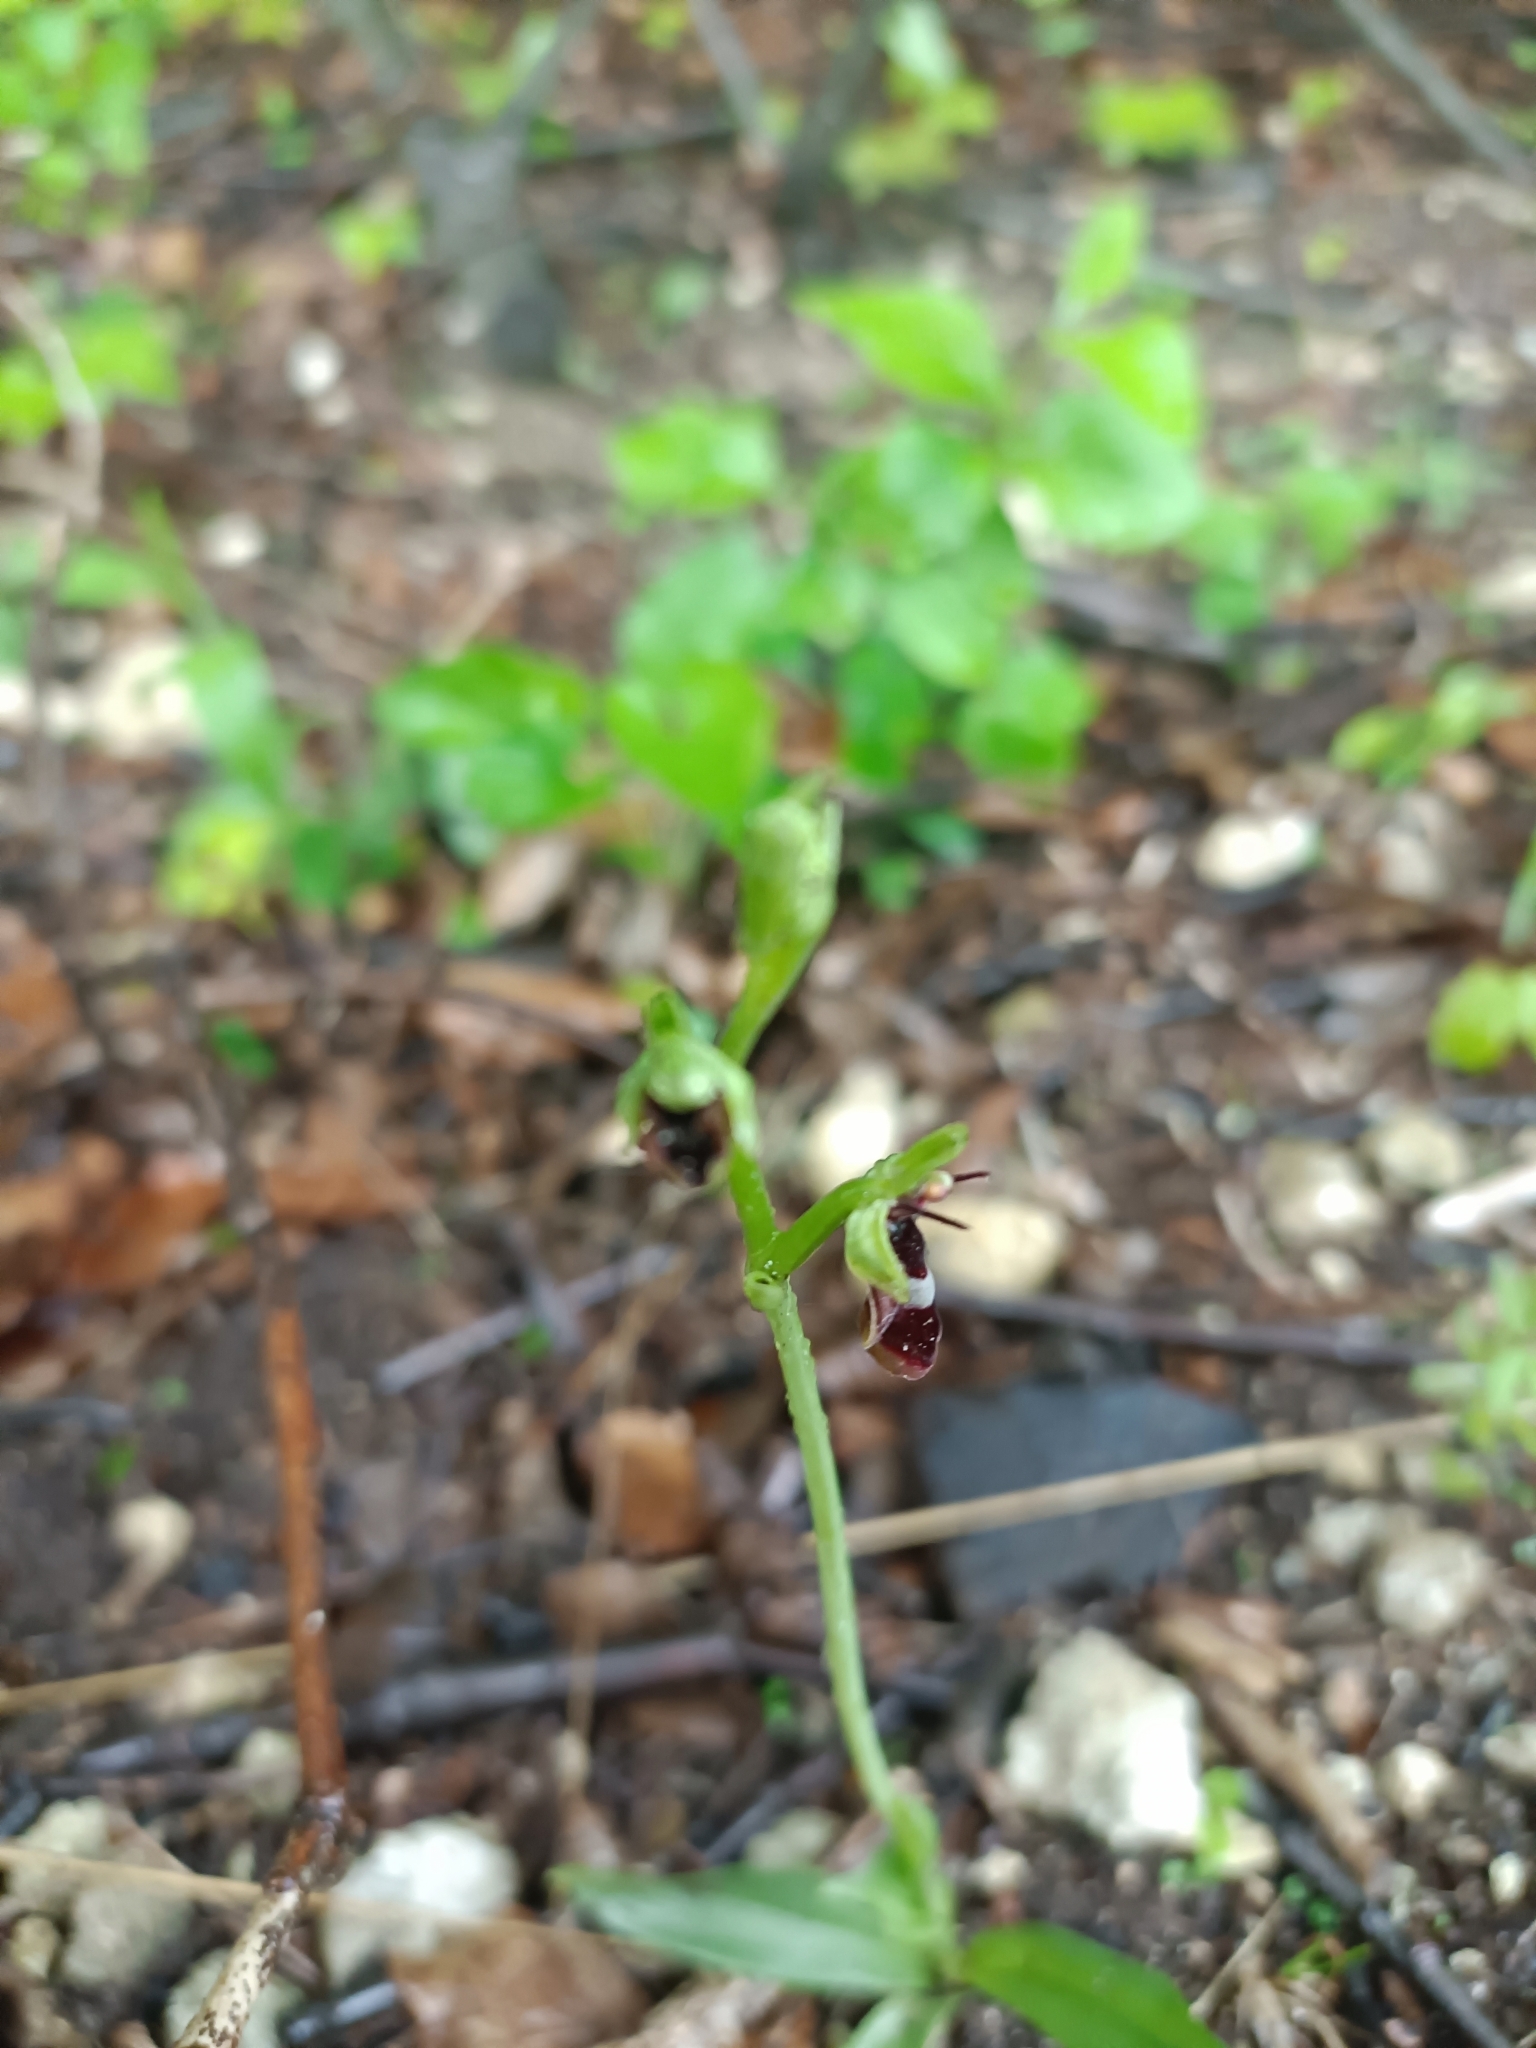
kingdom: Plantae
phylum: Tracheophyta
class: Liliopsida
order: Asparagales
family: Orchidaceae
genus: Ophrys
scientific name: Ophrys insectifera
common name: Fly orchid
